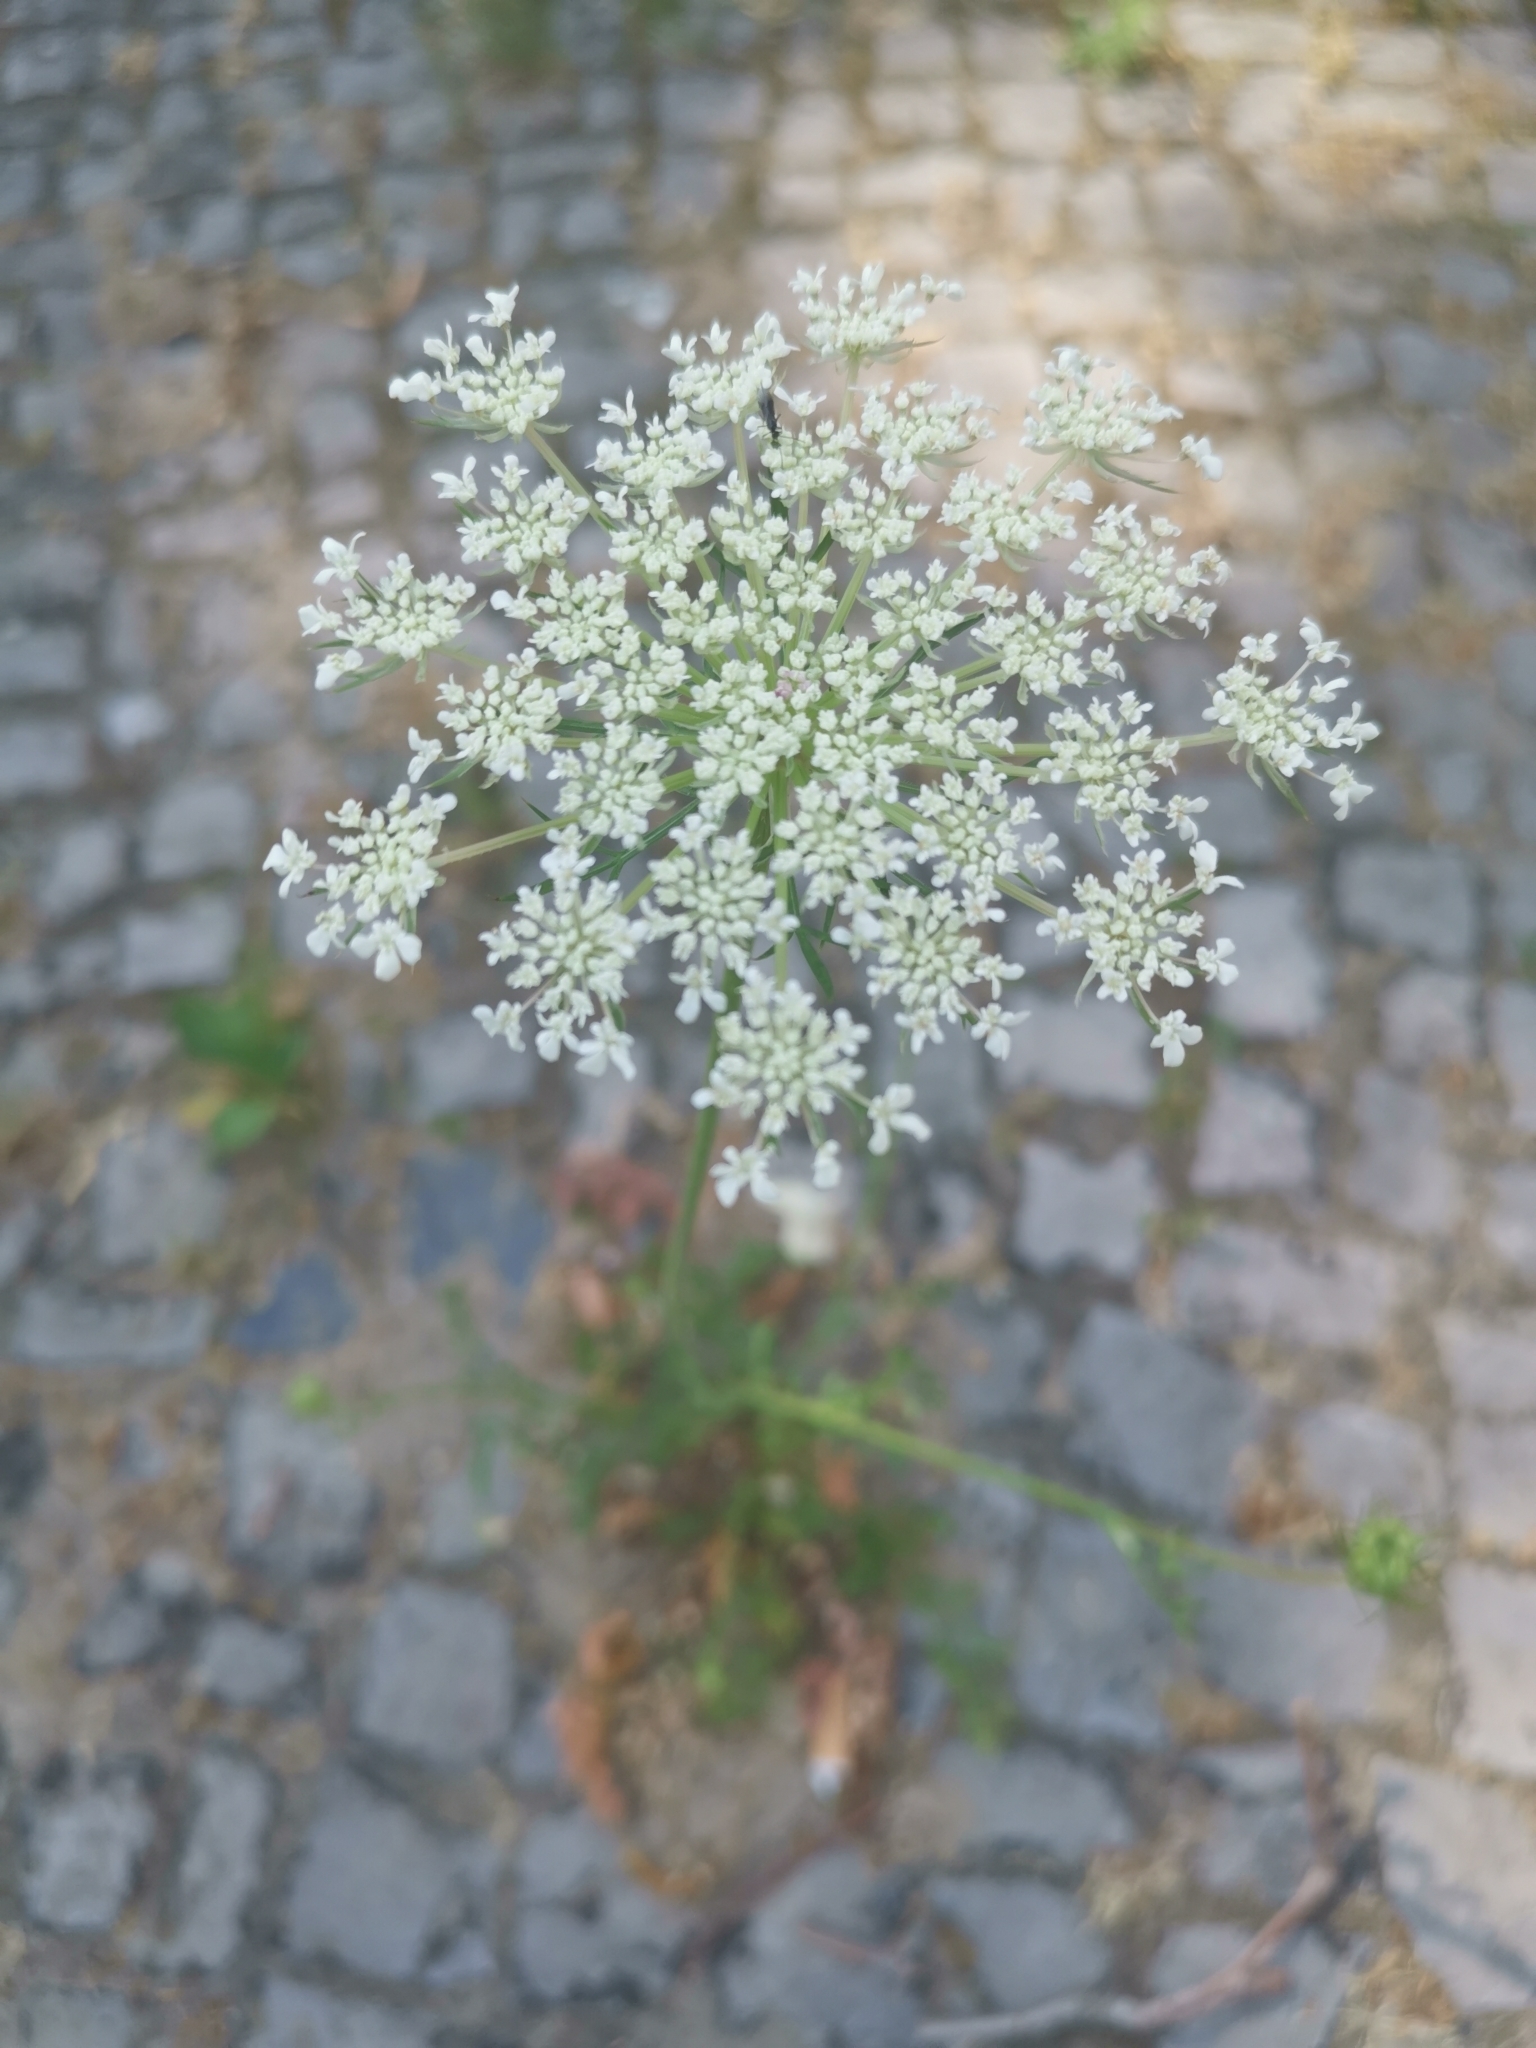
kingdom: Plantae
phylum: Tracheophyta
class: Magnoliopsida
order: Apiales
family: Apiaceae
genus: Daucus
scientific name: Daucus carota
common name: Wild carrot
